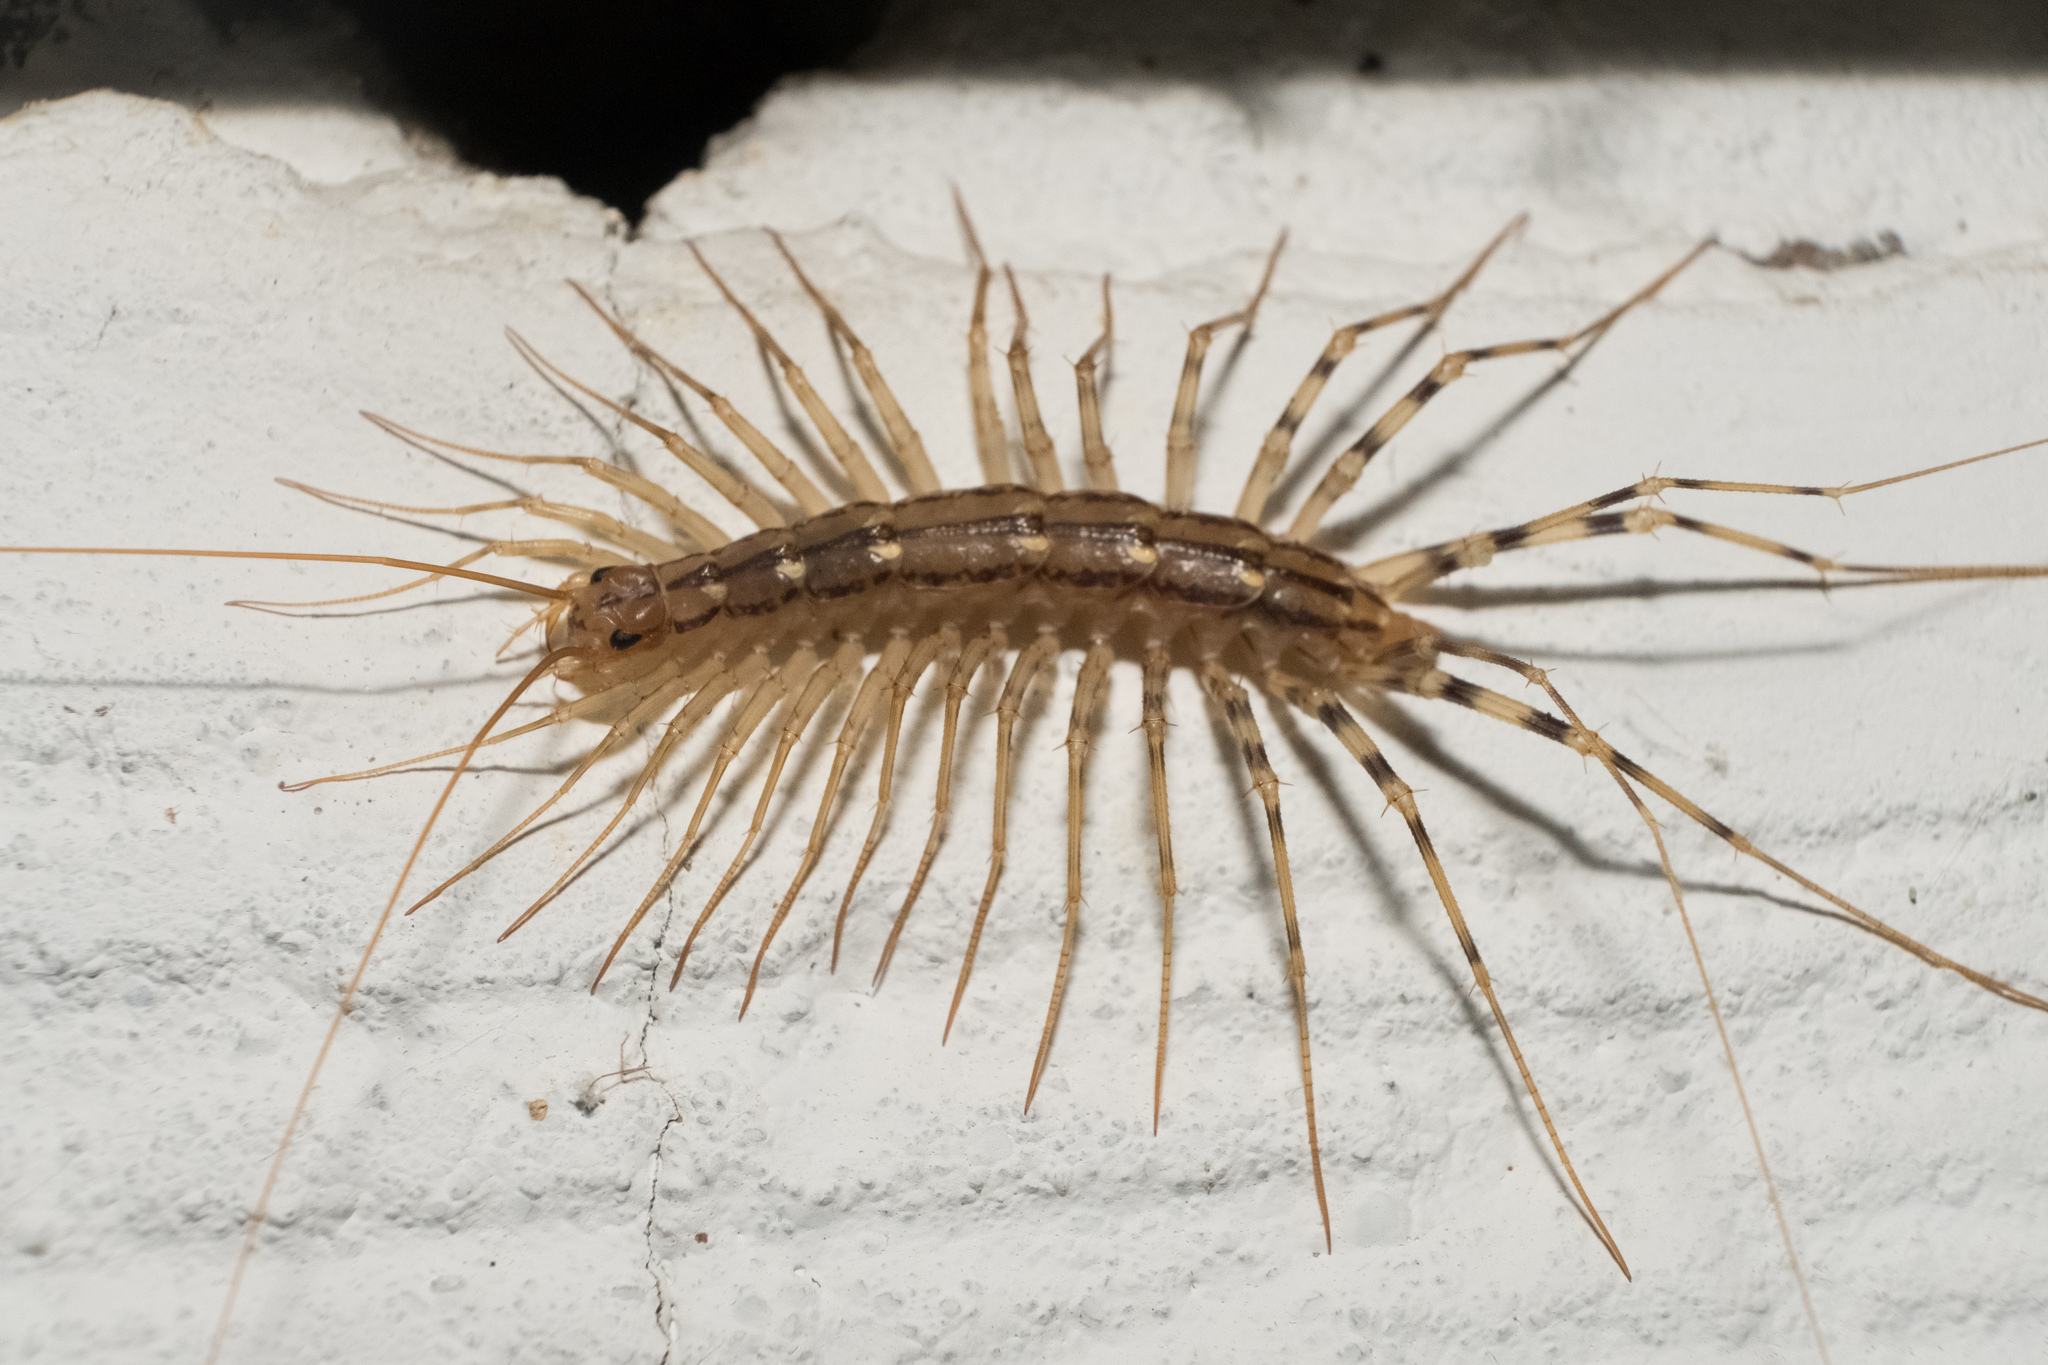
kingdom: Animalia
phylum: Arthropoda
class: Chilopoda
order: Scutigeromorpha
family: Scutigeridae
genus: Scutigera
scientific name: Scutigera coleoptrata
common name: House centipede
